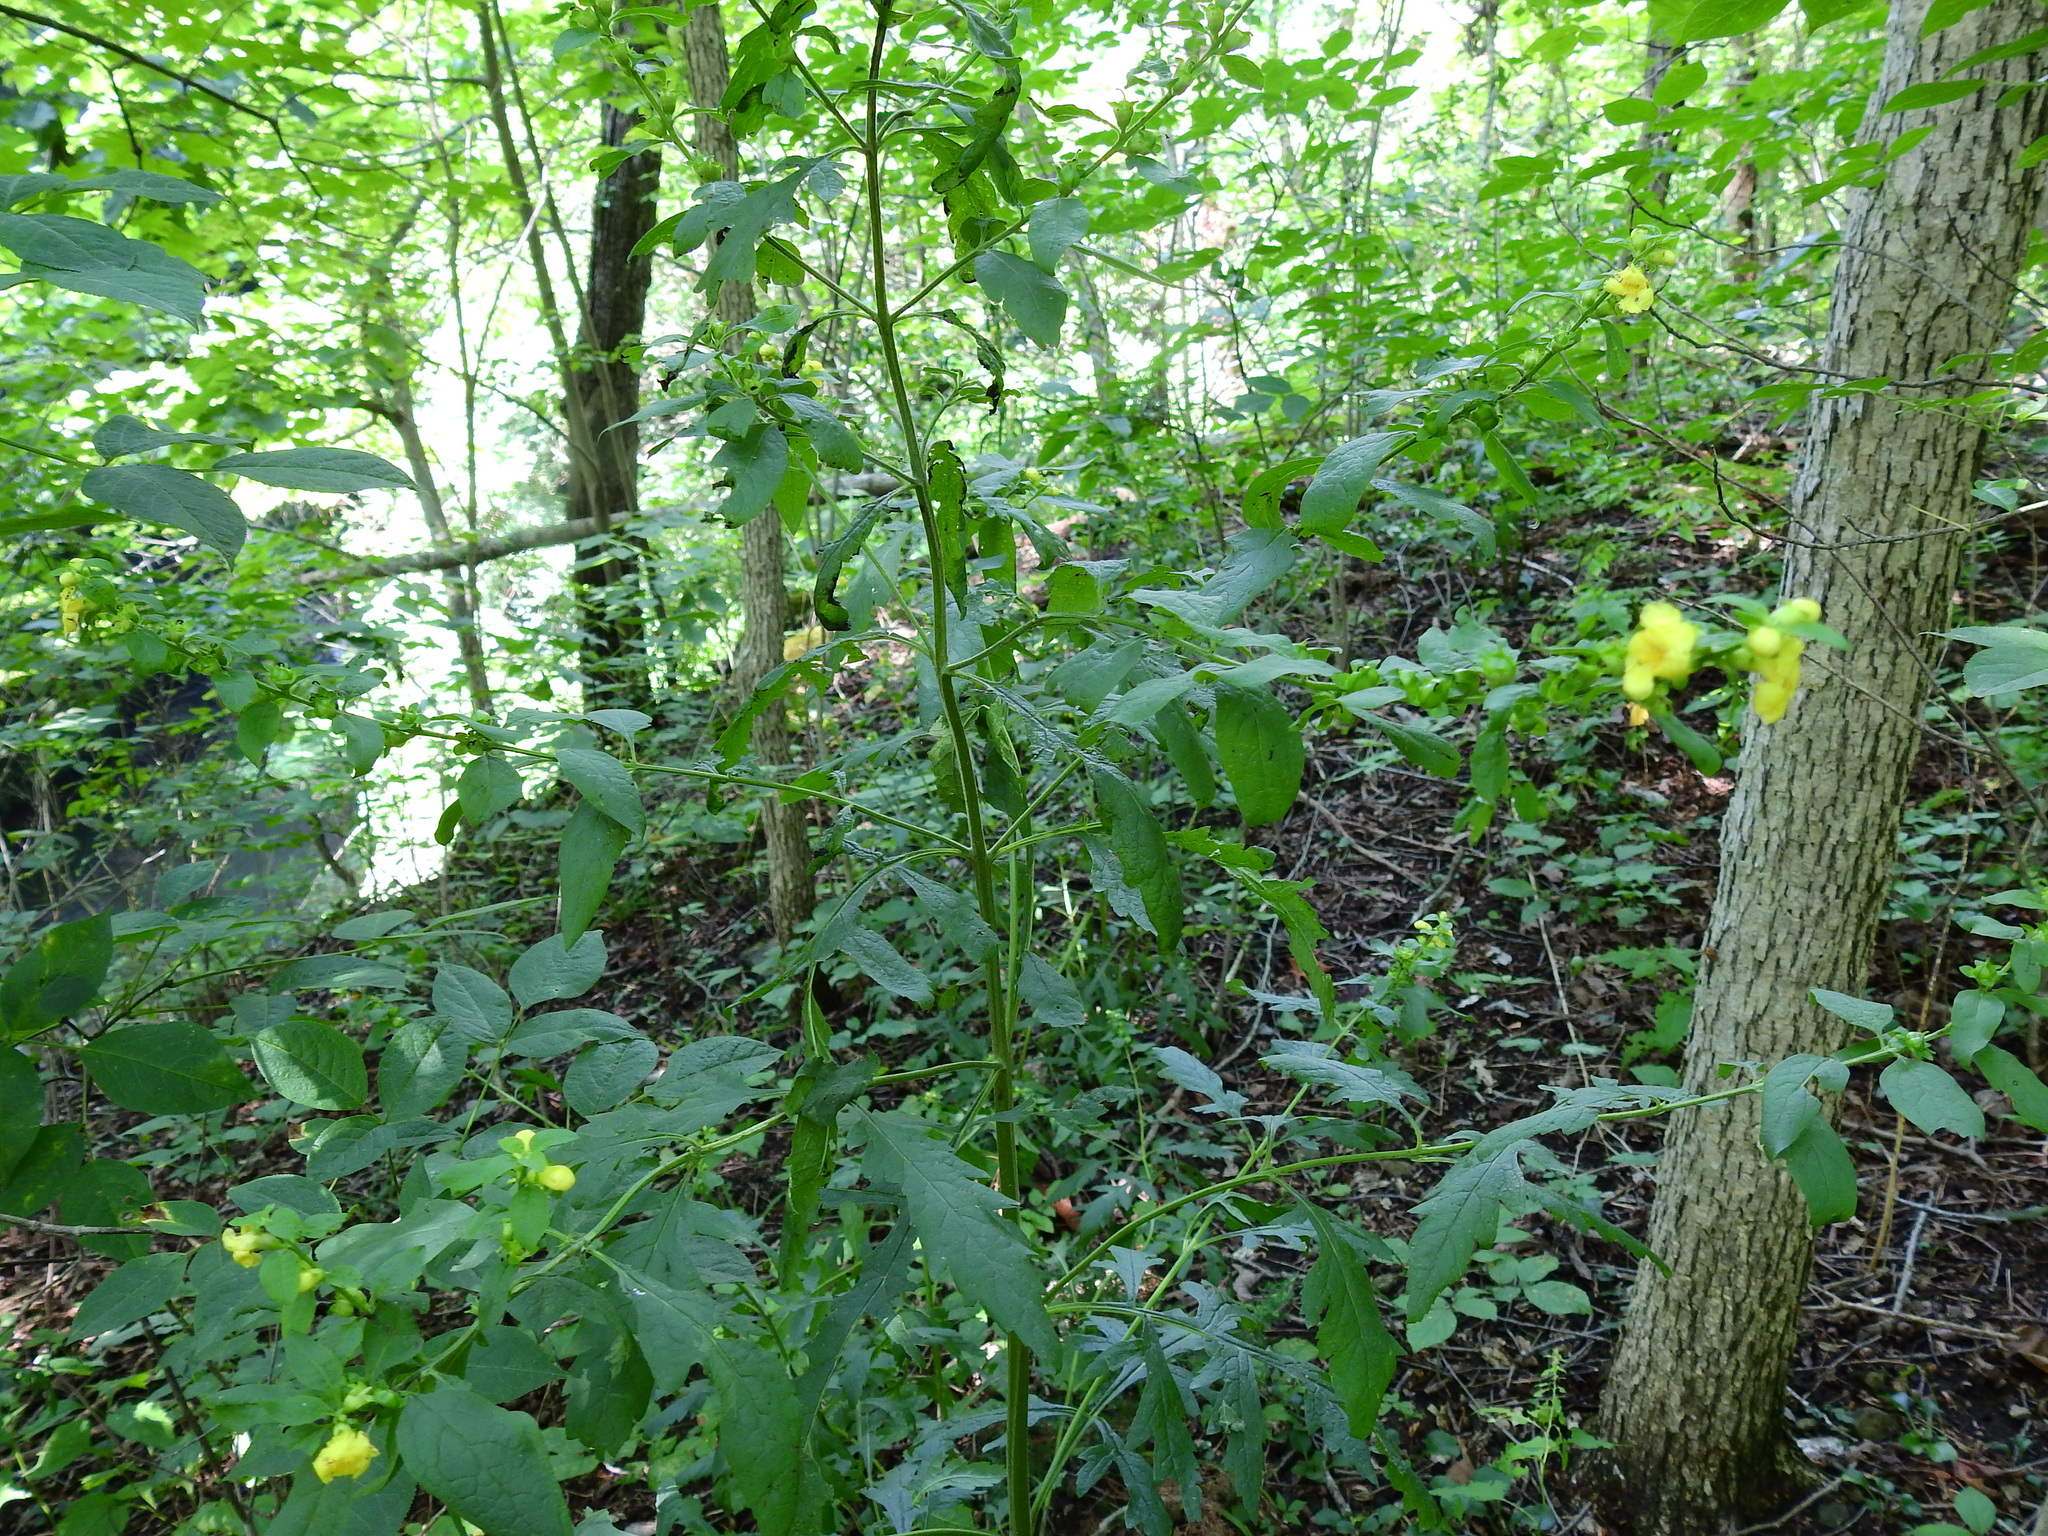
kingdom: Plantae
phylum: Tracheophyta
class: Magnoliopsida
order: Lamiales
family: Orobanchaceae
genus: Dasistoma
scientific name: Dasistoma macrophyllum
